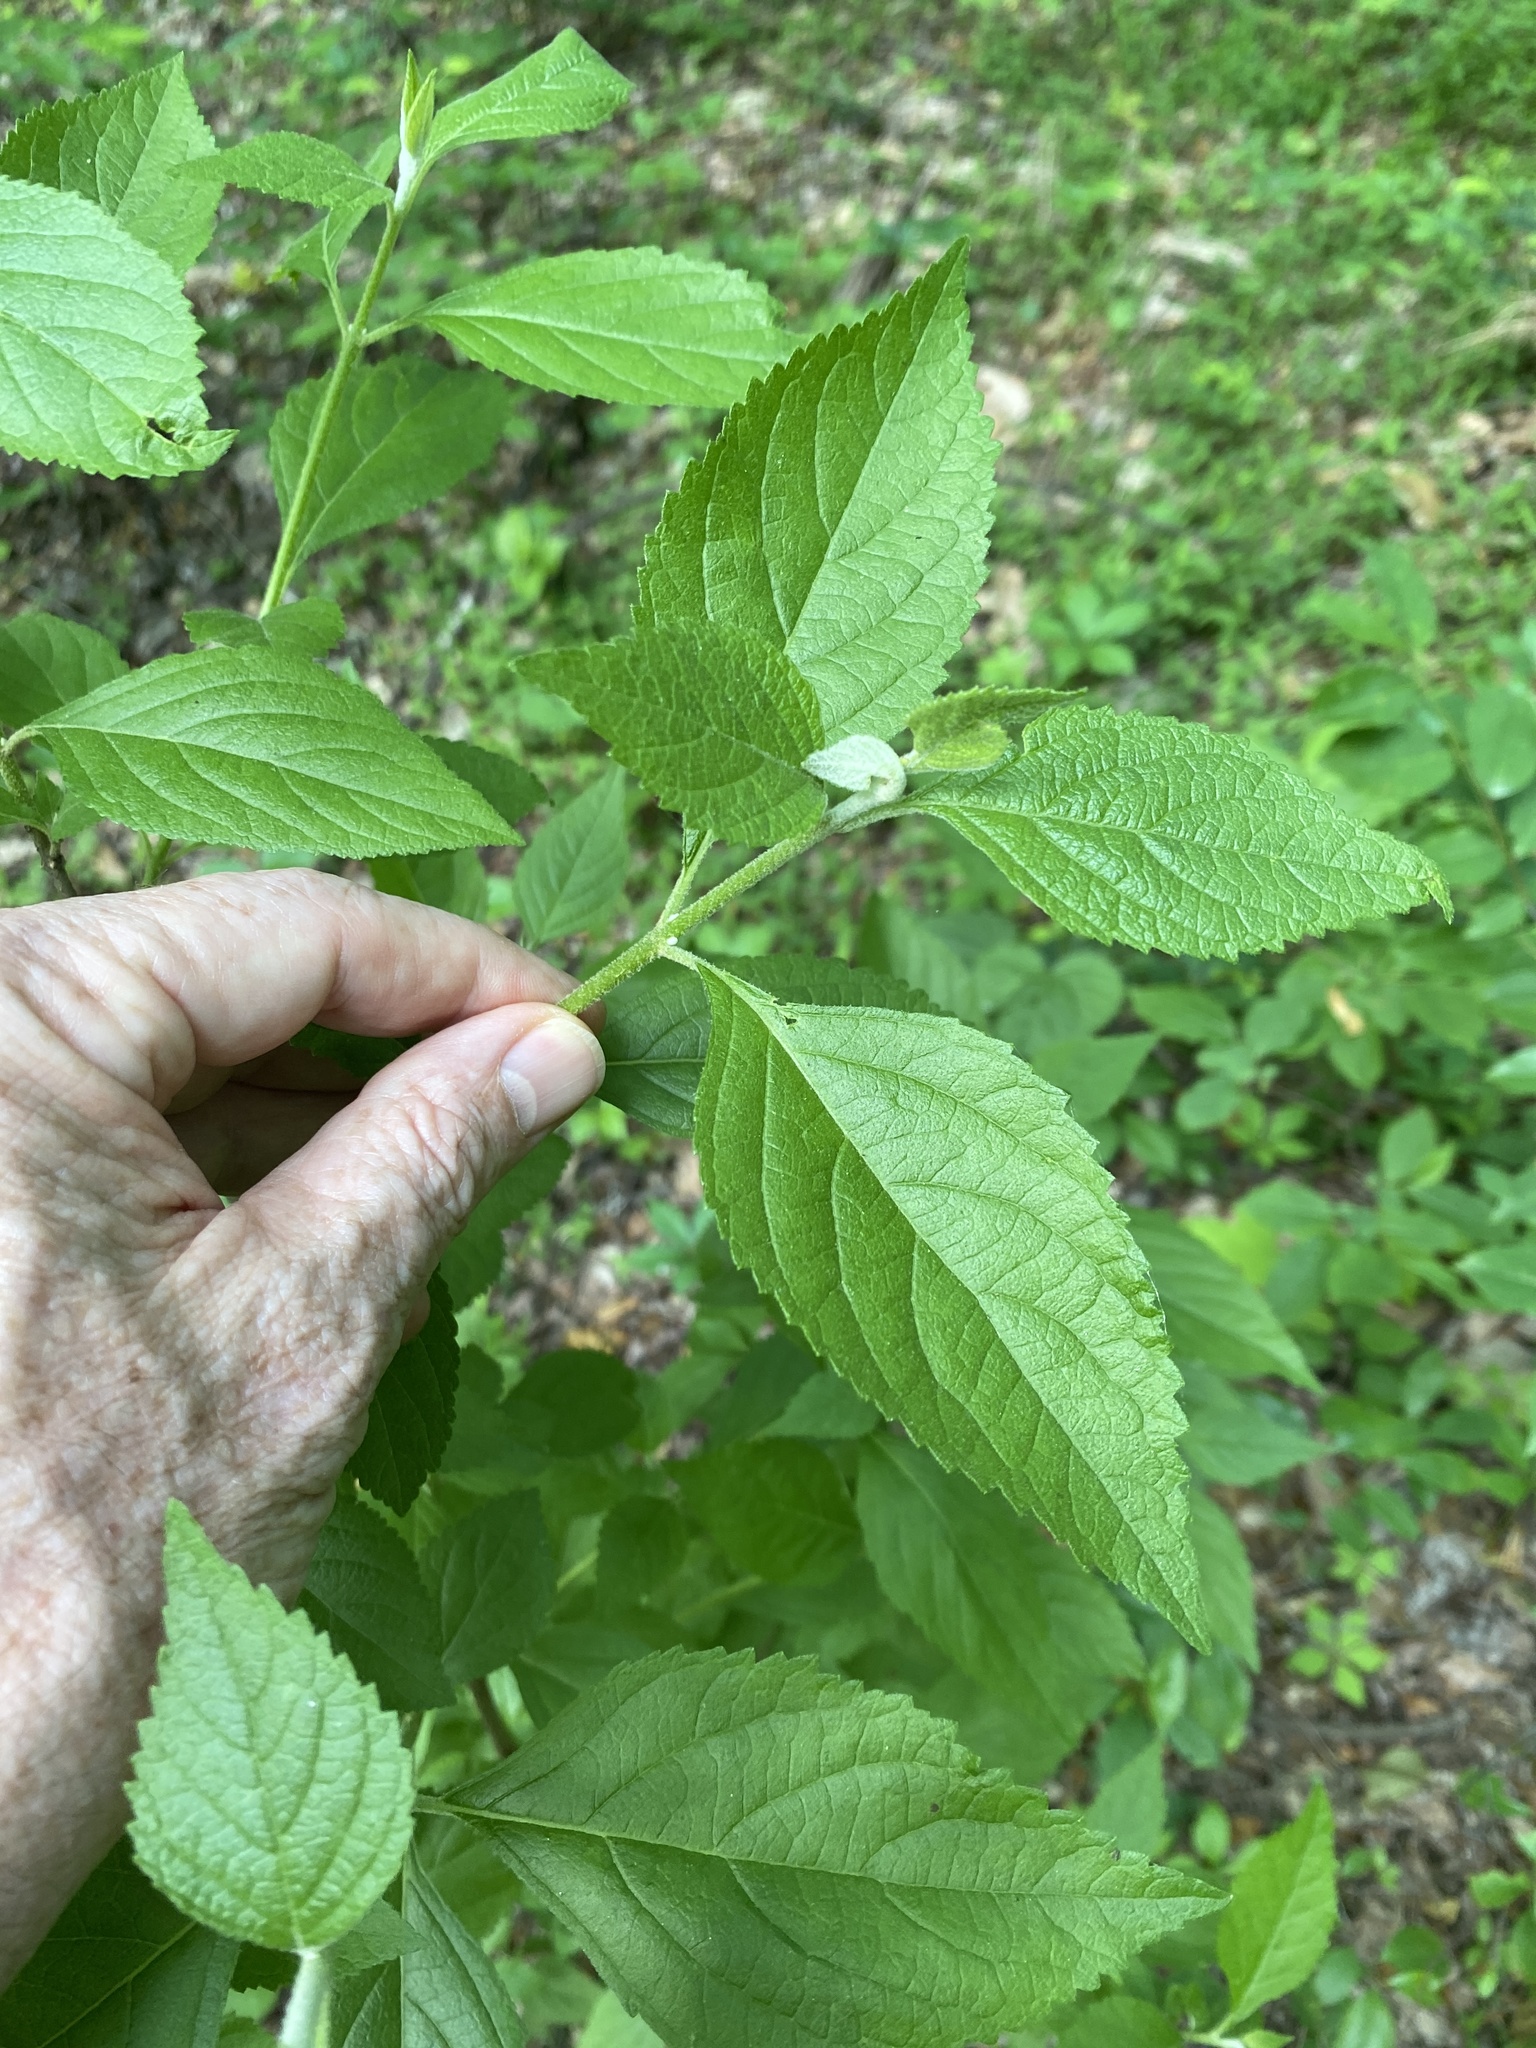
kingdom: Plantae
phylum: Tracheophyta
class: Magnoliopsida
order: Lamiales
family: Lamiaceae
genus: Callicarpa
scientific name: Callicarpa americana
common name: American beautyberry
